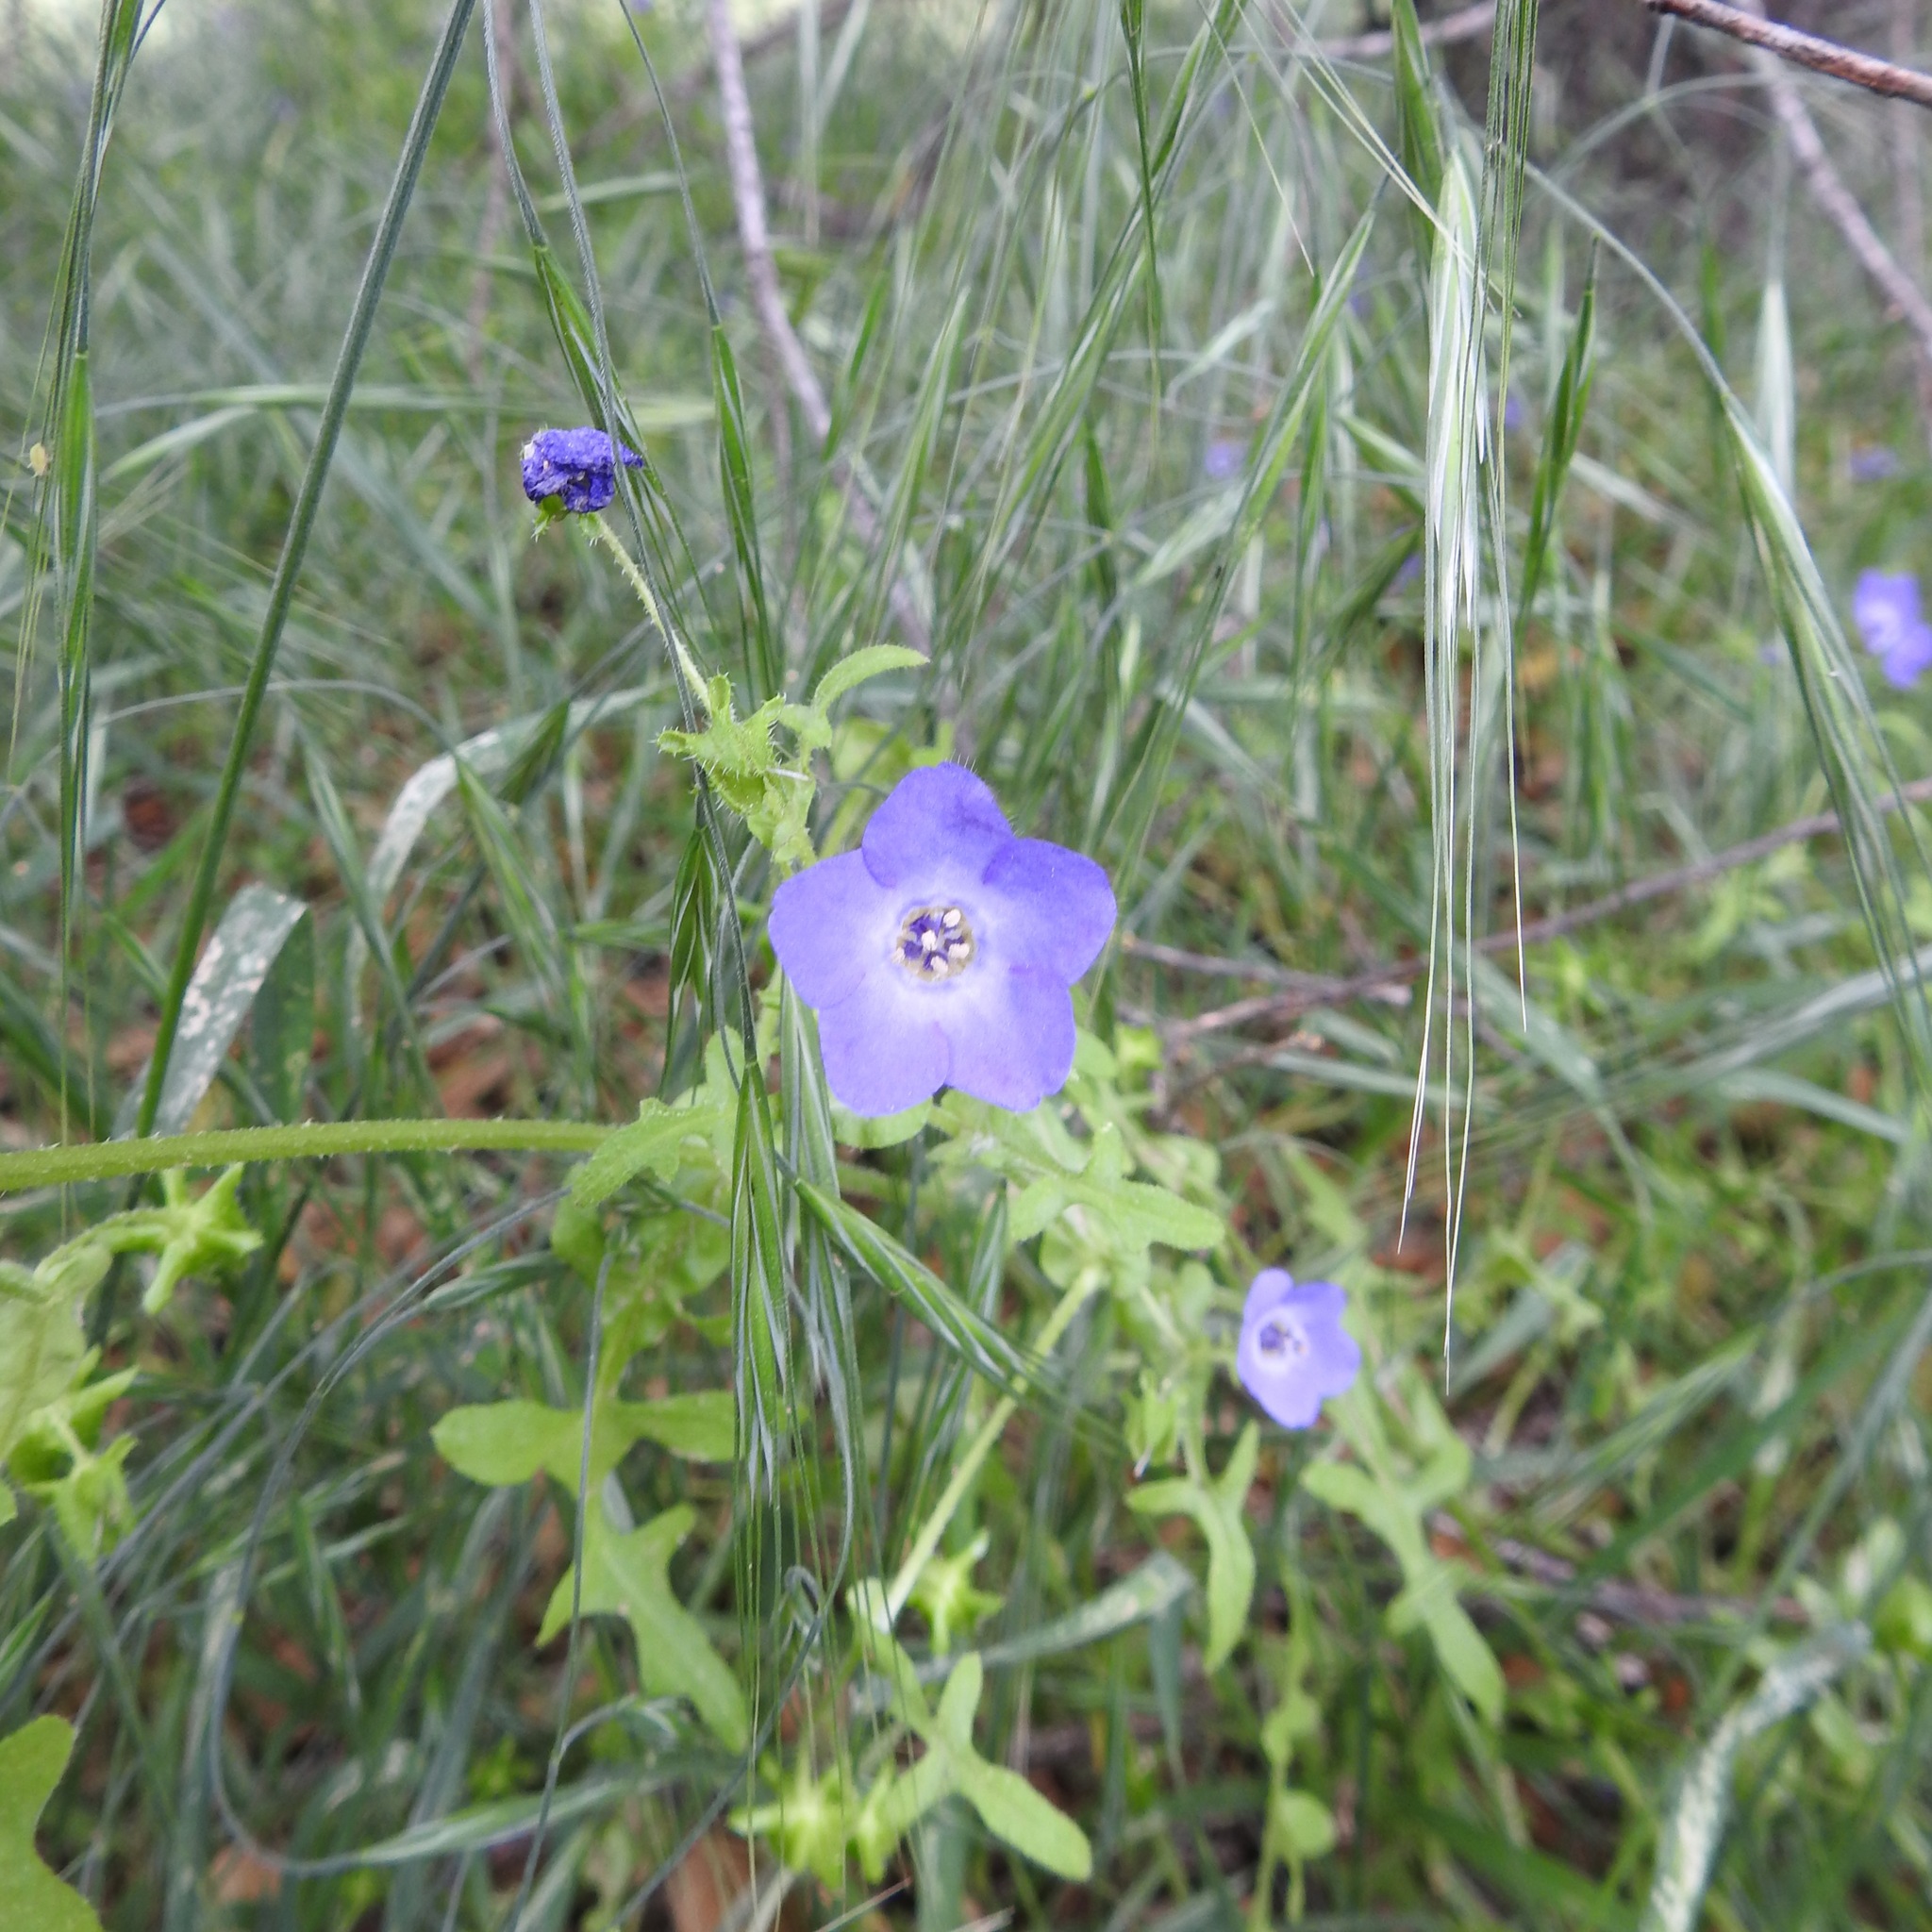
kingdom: Plantae
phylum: Tracheophyta
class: Magnoliopsida
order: Boraginales
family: Hydrophyllaceae
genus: Pholistoma
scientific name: Pholistoma auritum
